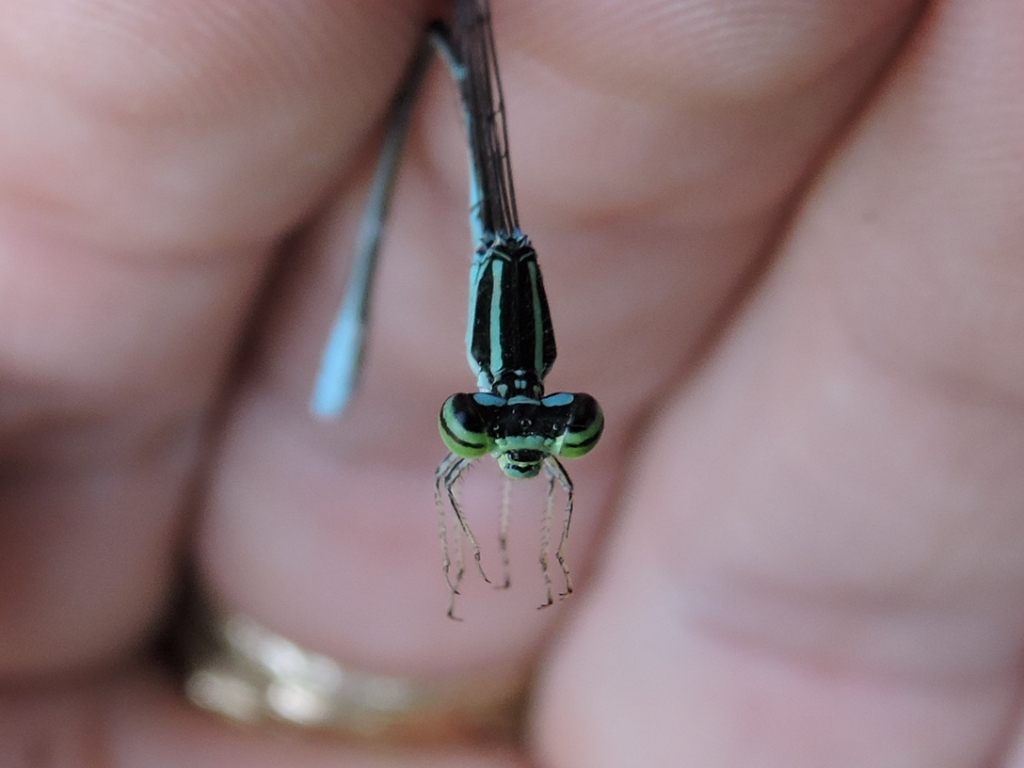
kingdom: Animalia
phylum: Arthropoda
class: Insecta
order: Odonata
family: Coenagrionidae
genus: Enallagma
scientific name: Enallagma exsulans
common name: Stream bluet
